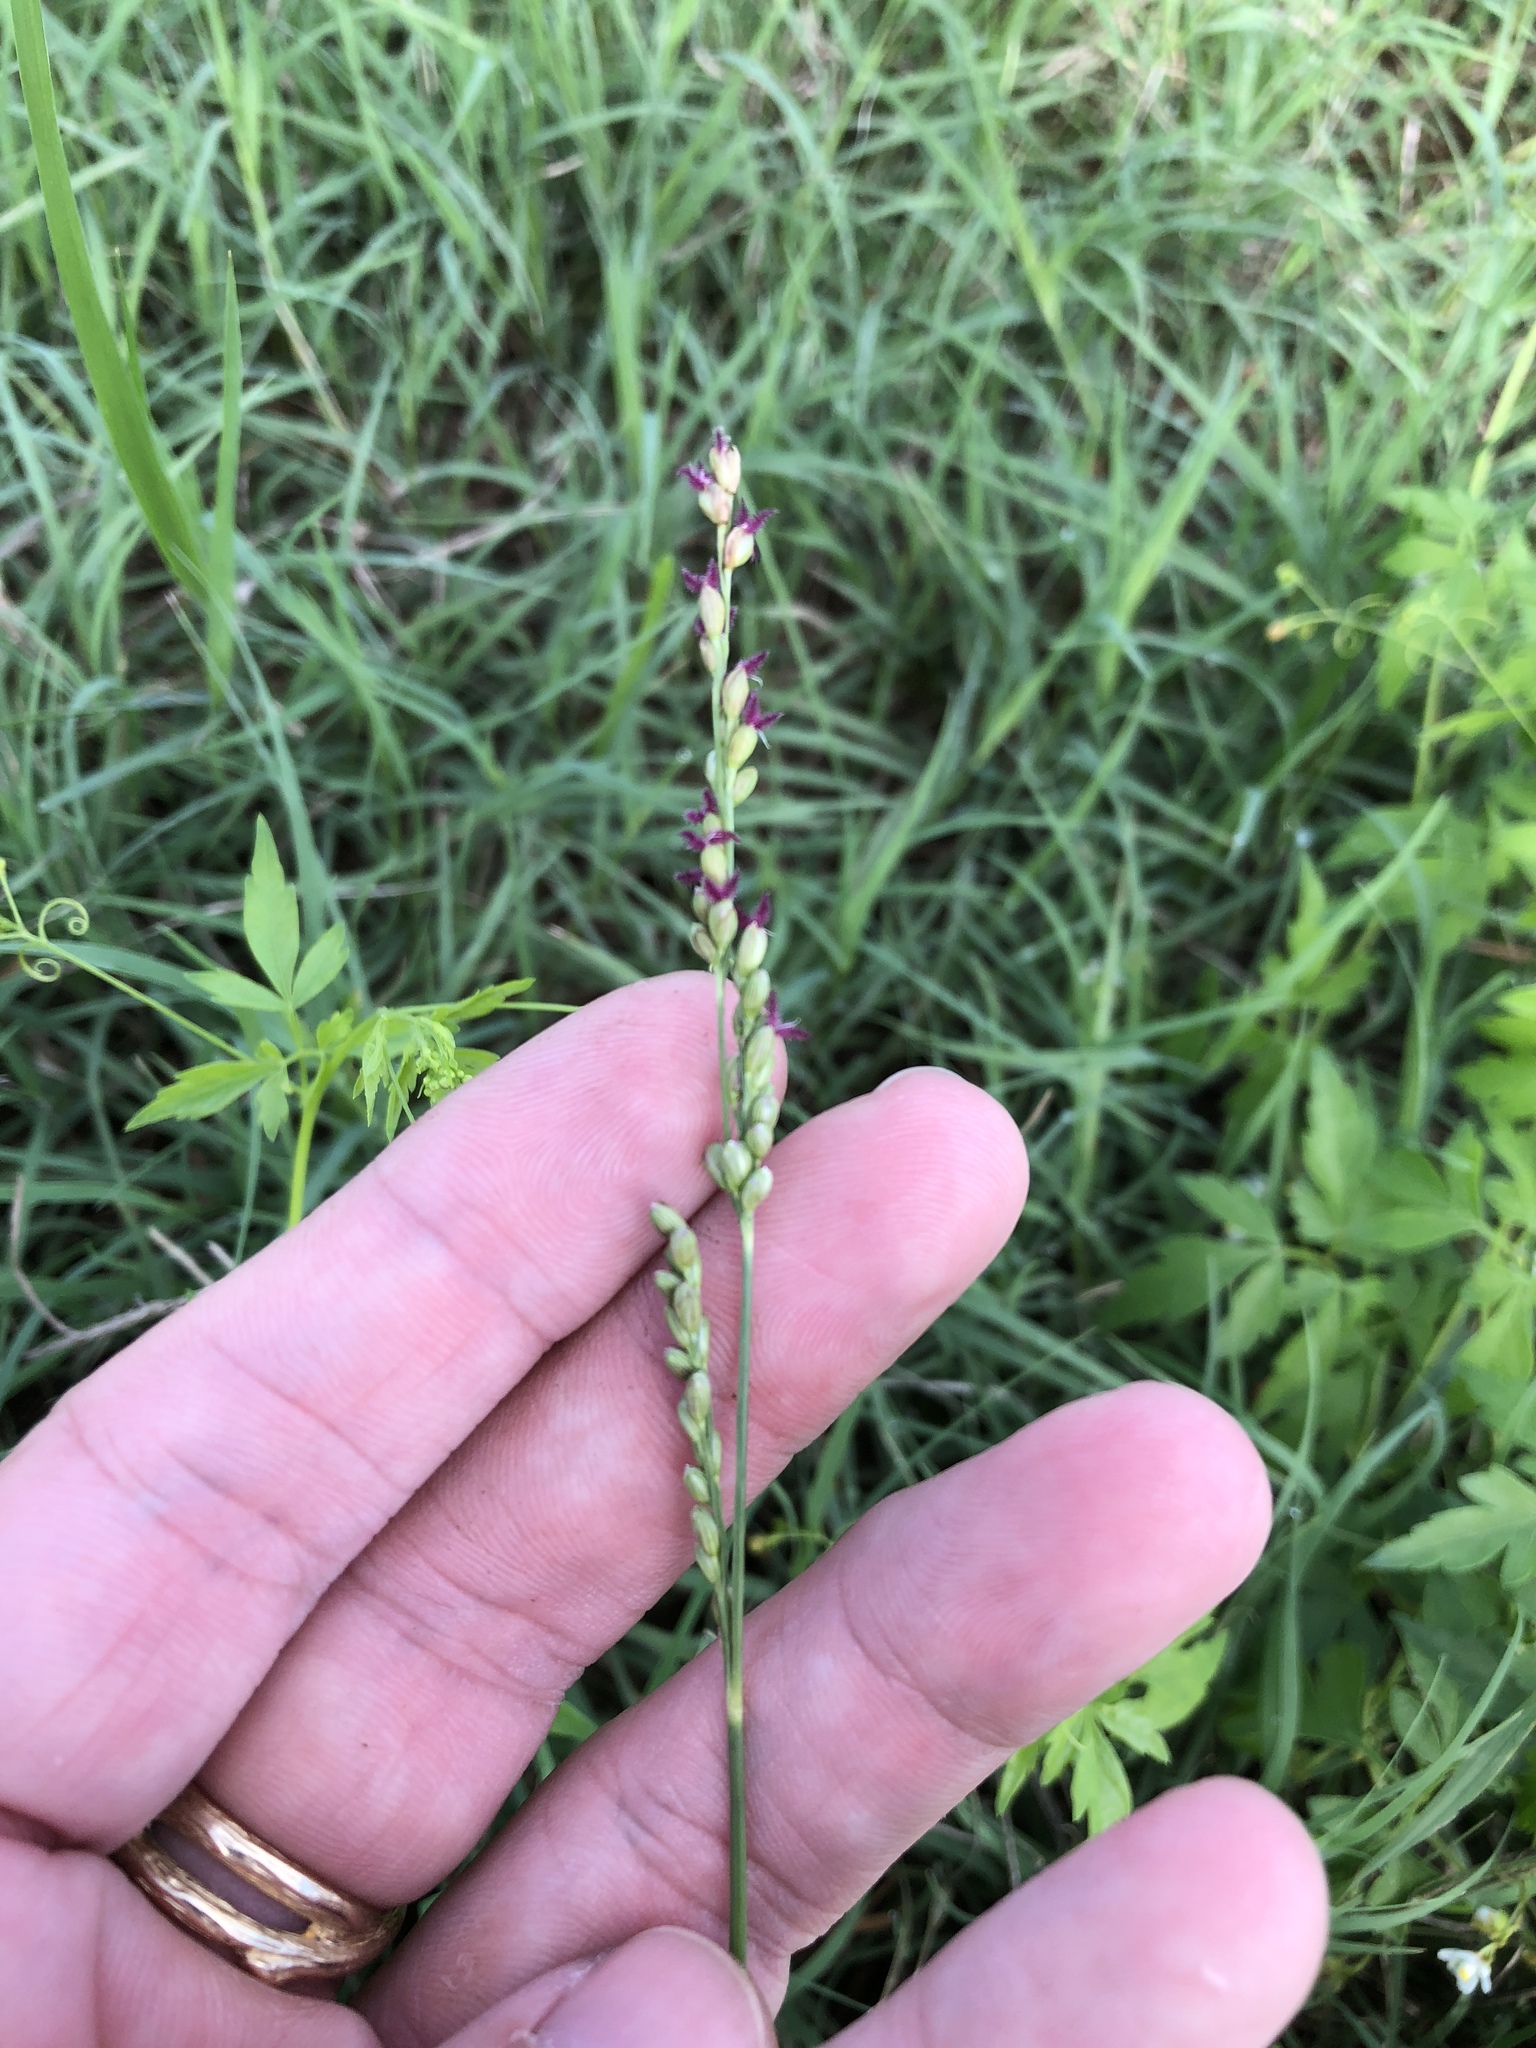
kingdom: Plantae
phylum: Tracheophyta
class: Liliopsida
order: Poales
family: Poaceae
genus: Hopia
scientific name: Hopia obtusa
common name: Vine-mesquite
